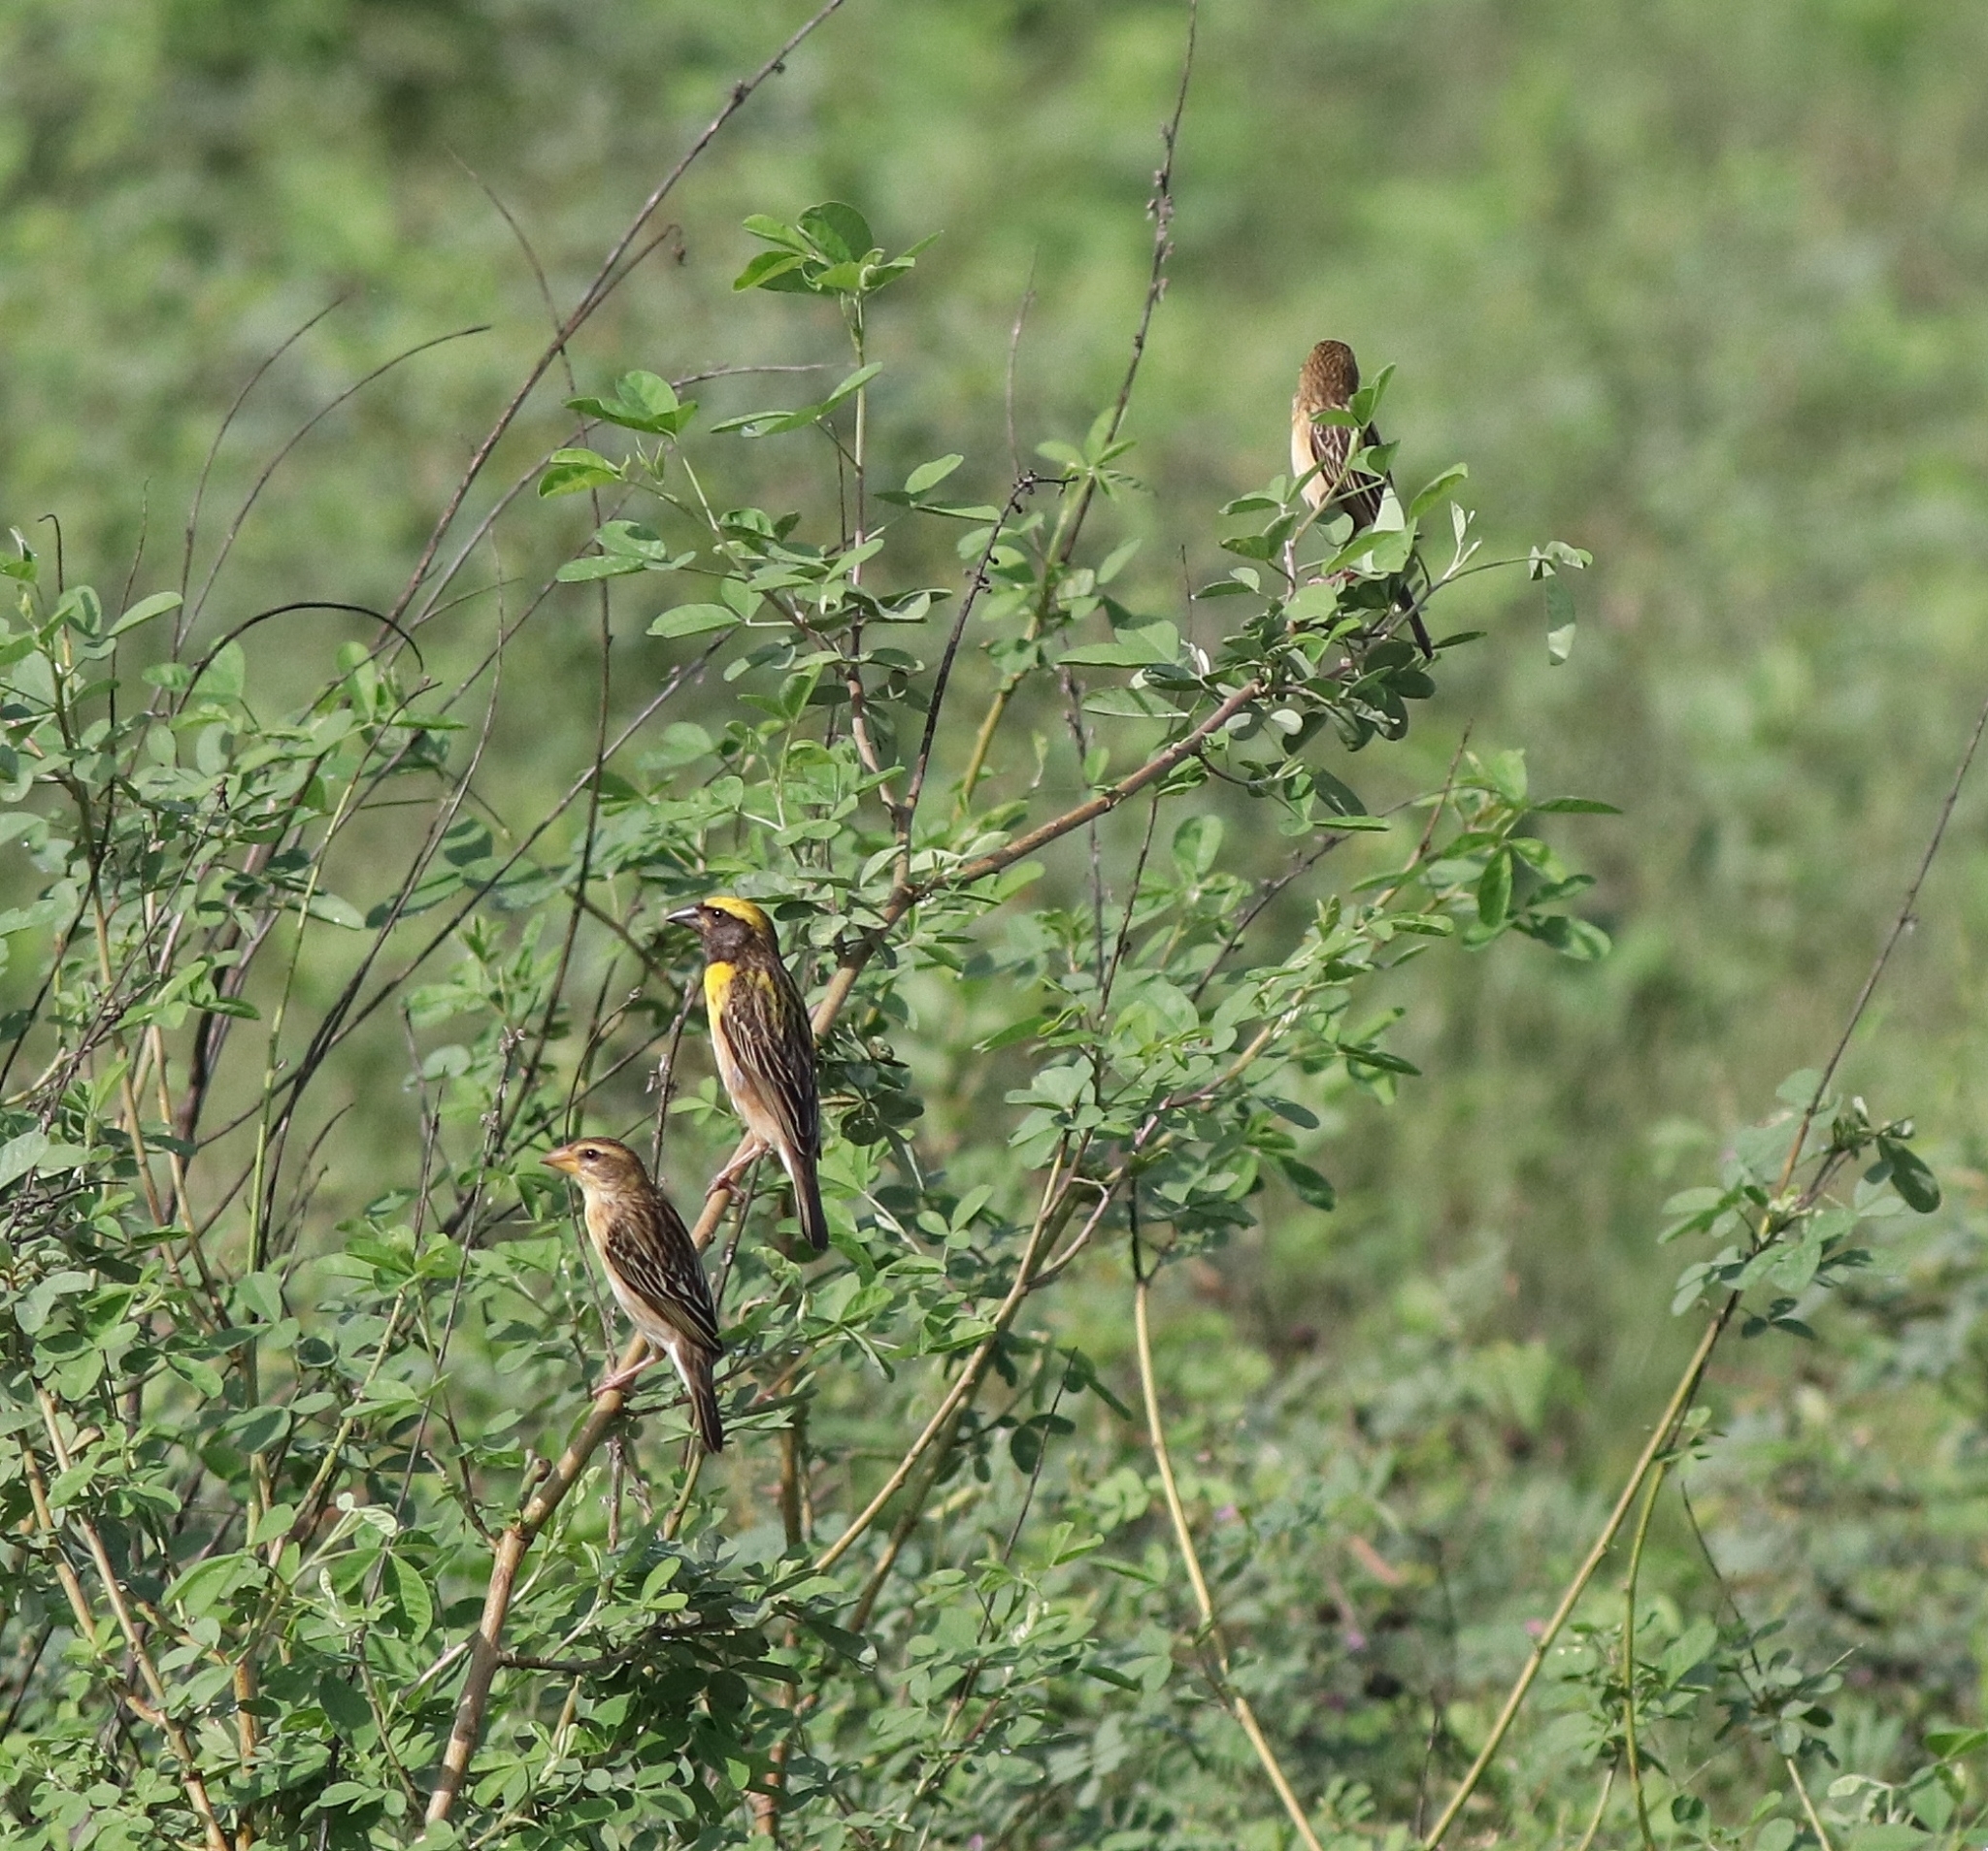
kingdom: Animalia
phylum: Chordata
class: Aves
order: Passeriformes
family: Ploceidae
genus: Ploceus
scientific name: Ploceus philippinus
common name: Baya weaver
